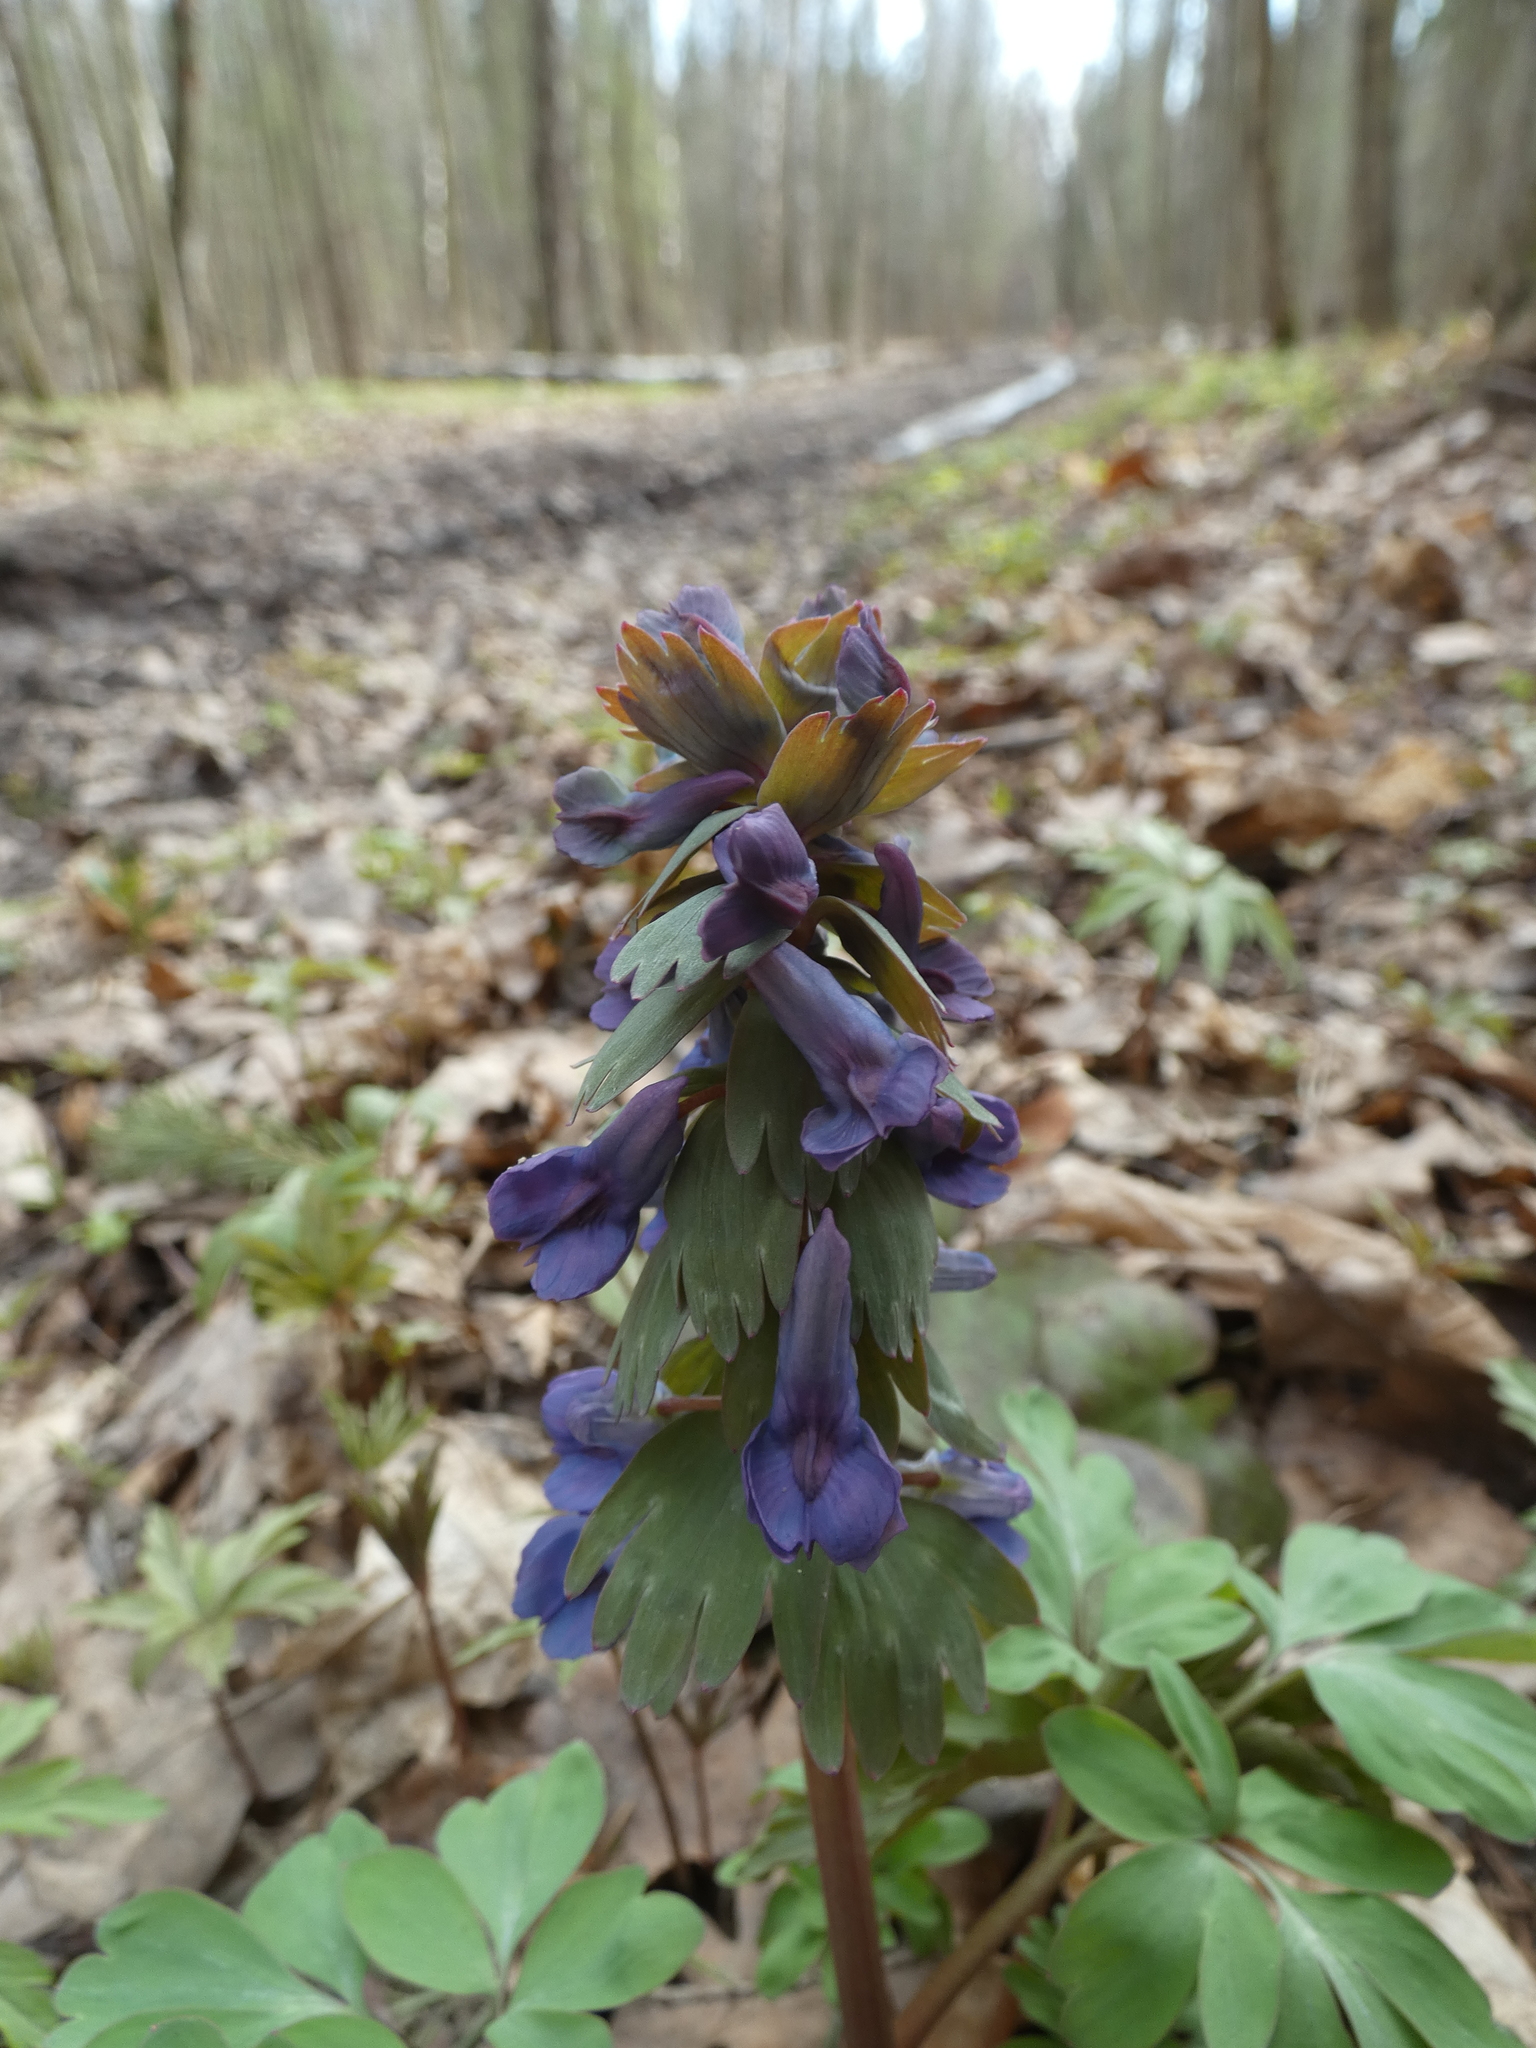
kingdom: Plantae
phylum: Tracheophyta
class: Magnoliopsida
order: Ranunculales
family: Papaveraceae
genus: Corydalis
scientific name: Corydalis solida
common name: Bird-in-a-bush
